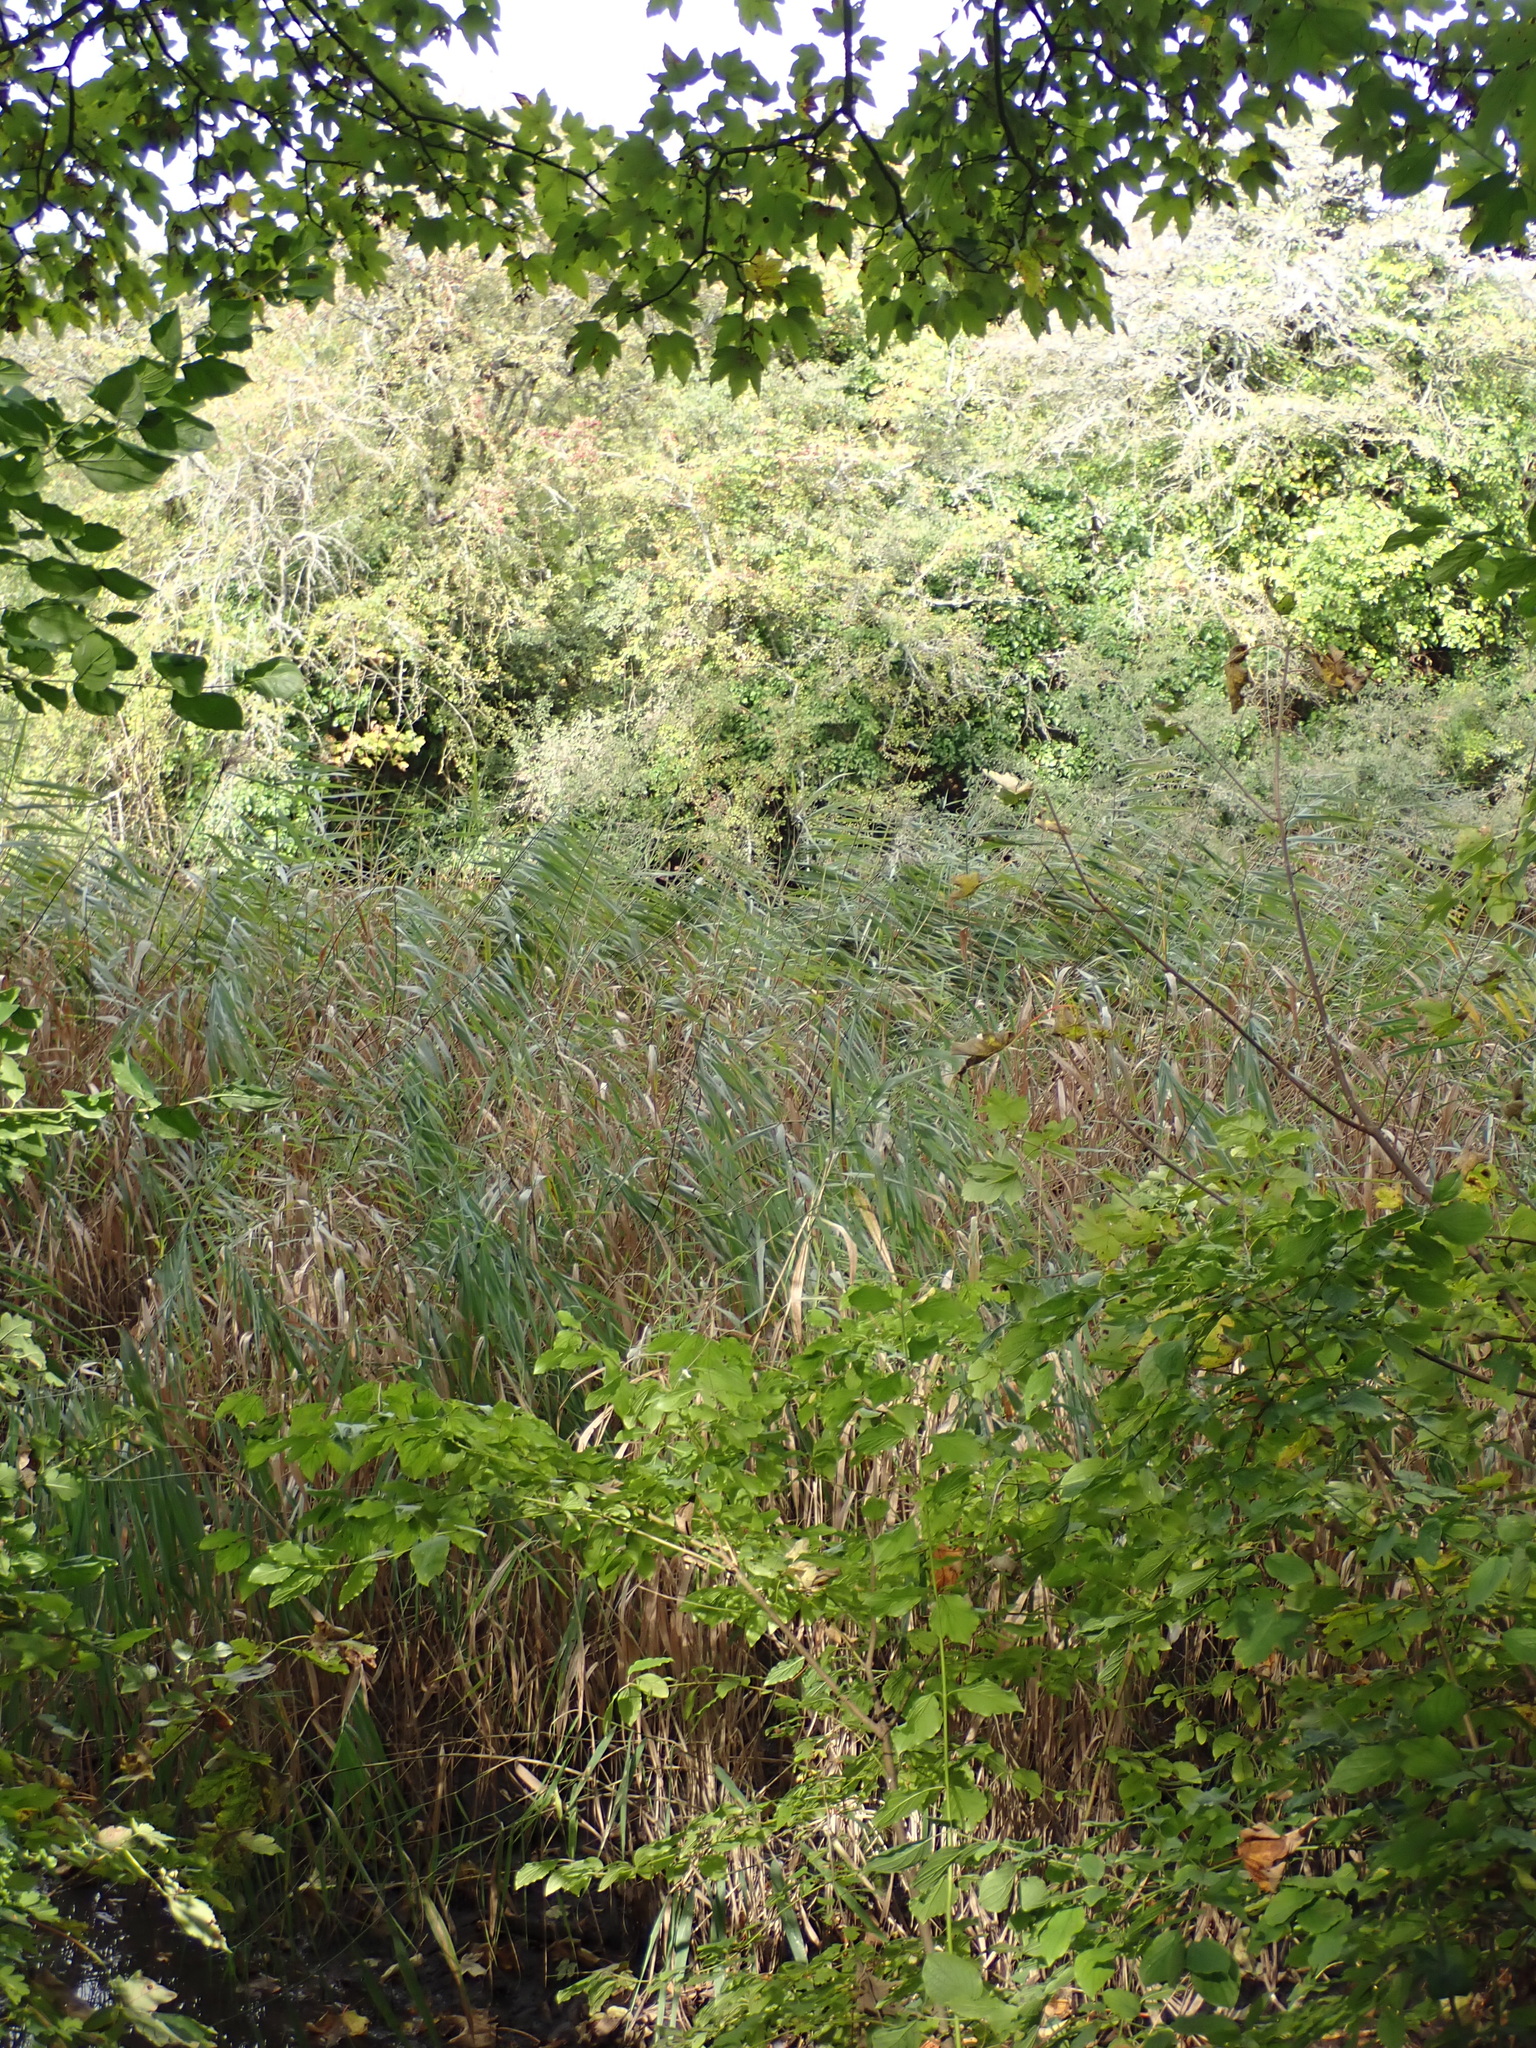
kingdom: Plantae
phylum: Tracheophyta
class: Liliopsida
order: Poales
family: Poaceae
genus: Phragmites
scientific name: Phragmites australis
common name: Common reed
